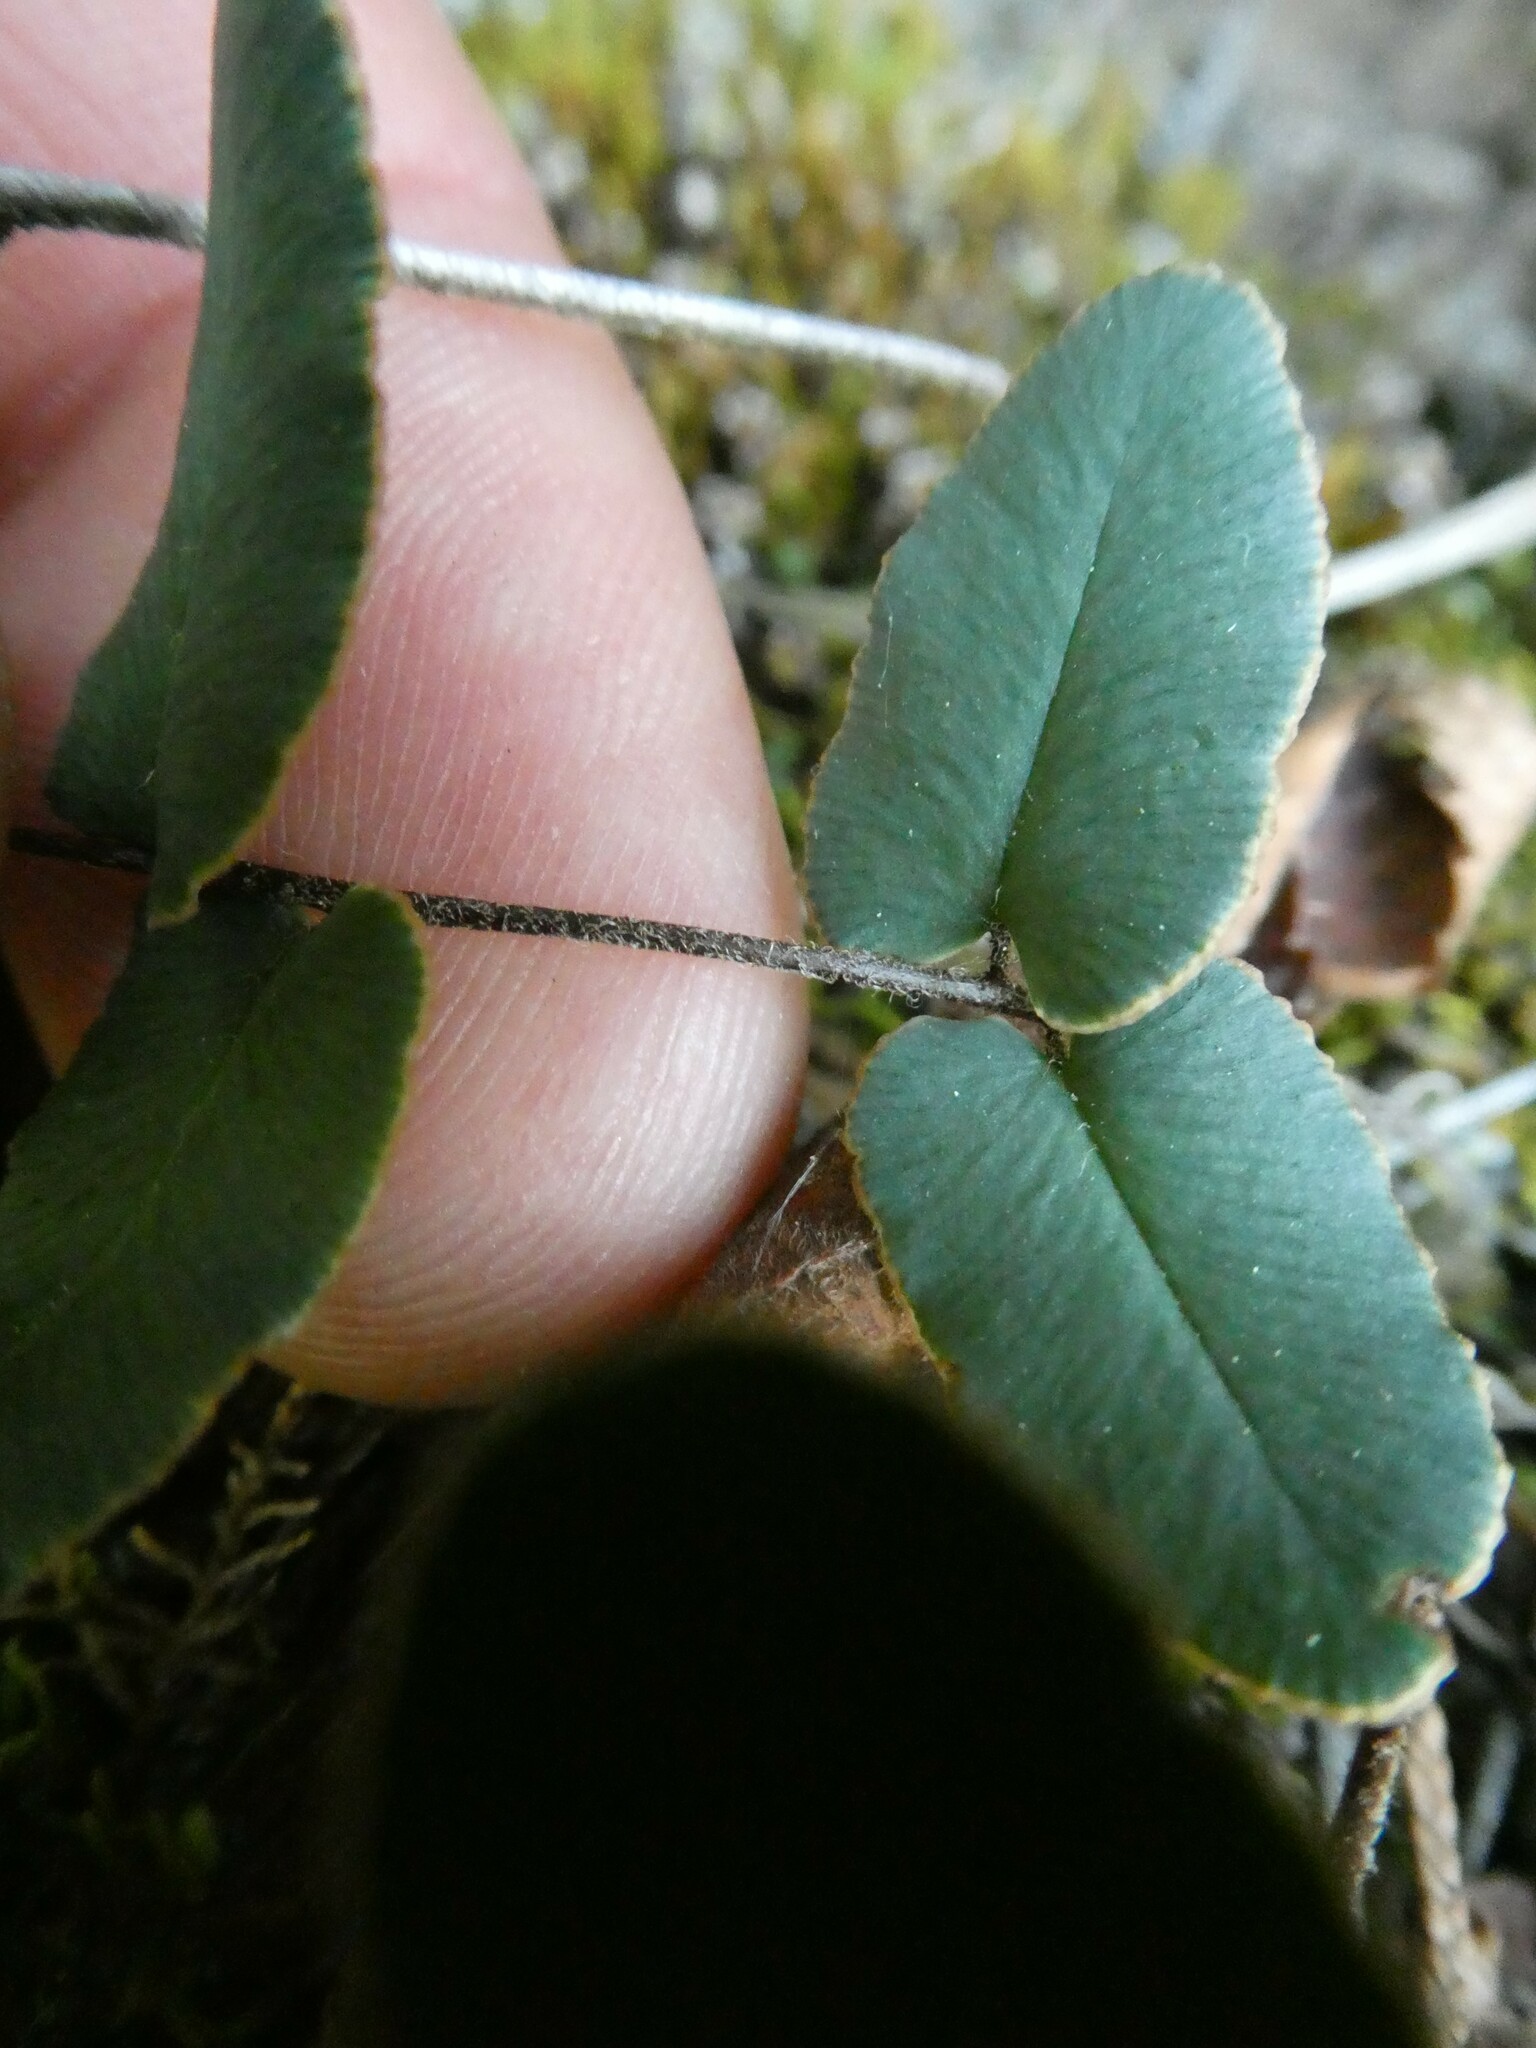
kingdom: Plantae
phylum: Tracheophyta
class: Polypodiopsida
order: Polypodiales
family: Pteridaceae
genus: Pellaea
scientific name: Pellaea atropurpurea
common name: Hairy cliffbrake
